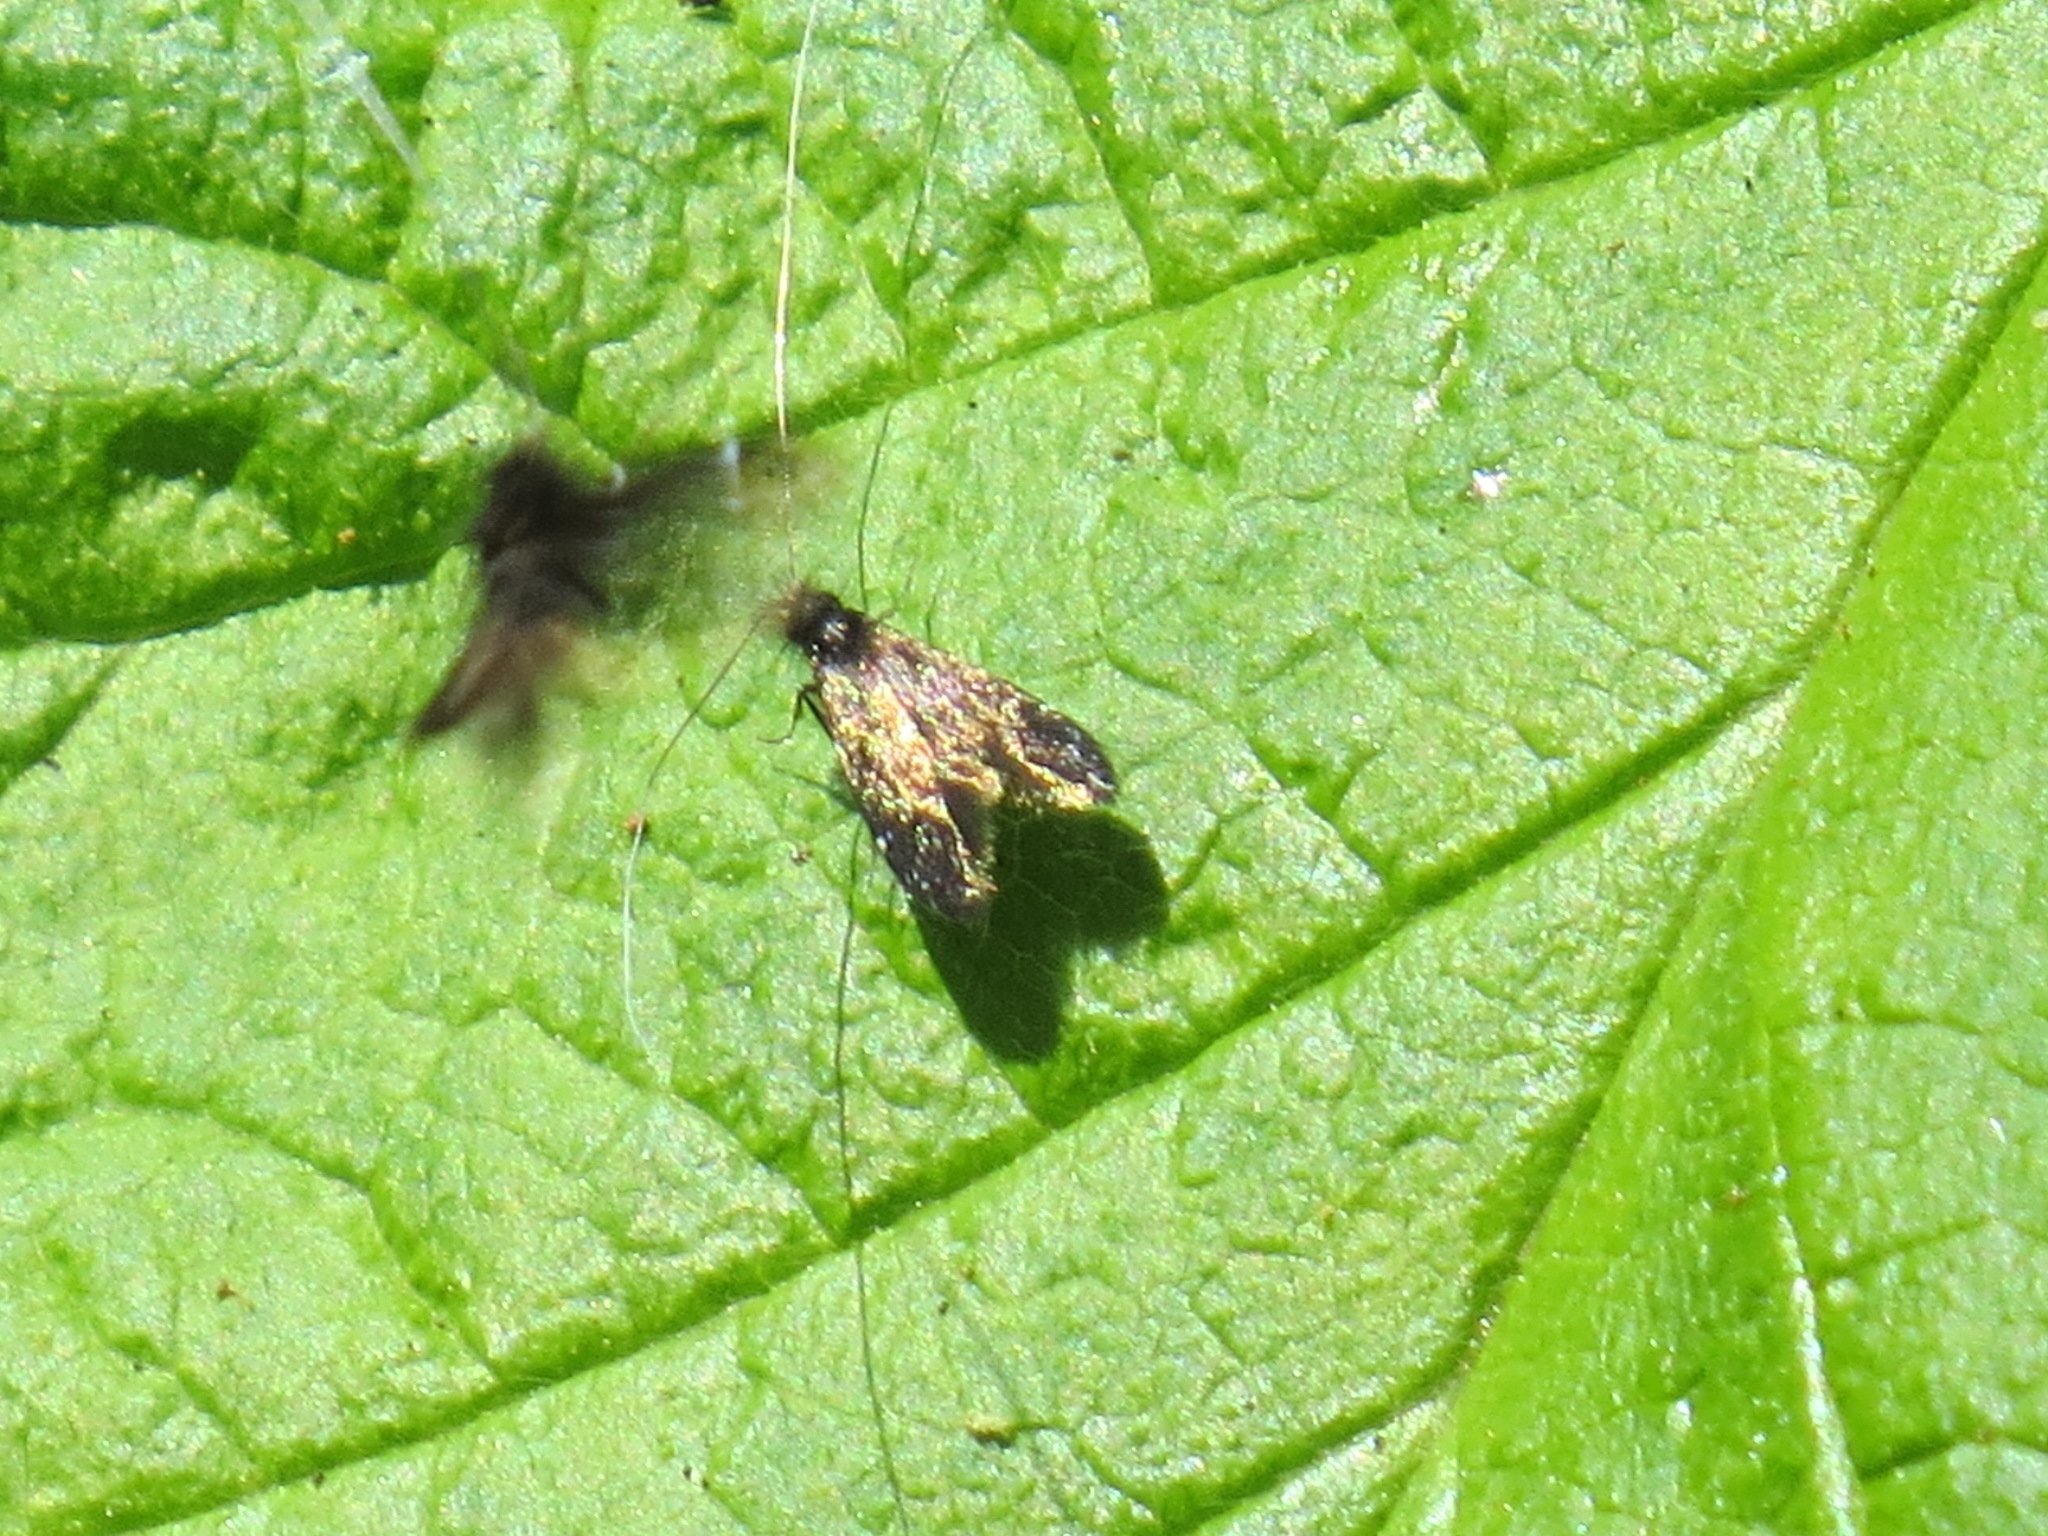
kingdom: Animalia
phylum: Arthropoda
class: Insecta
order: Lepidoptera
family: Adelidae
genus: Adela
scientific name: Adela septentrionella
